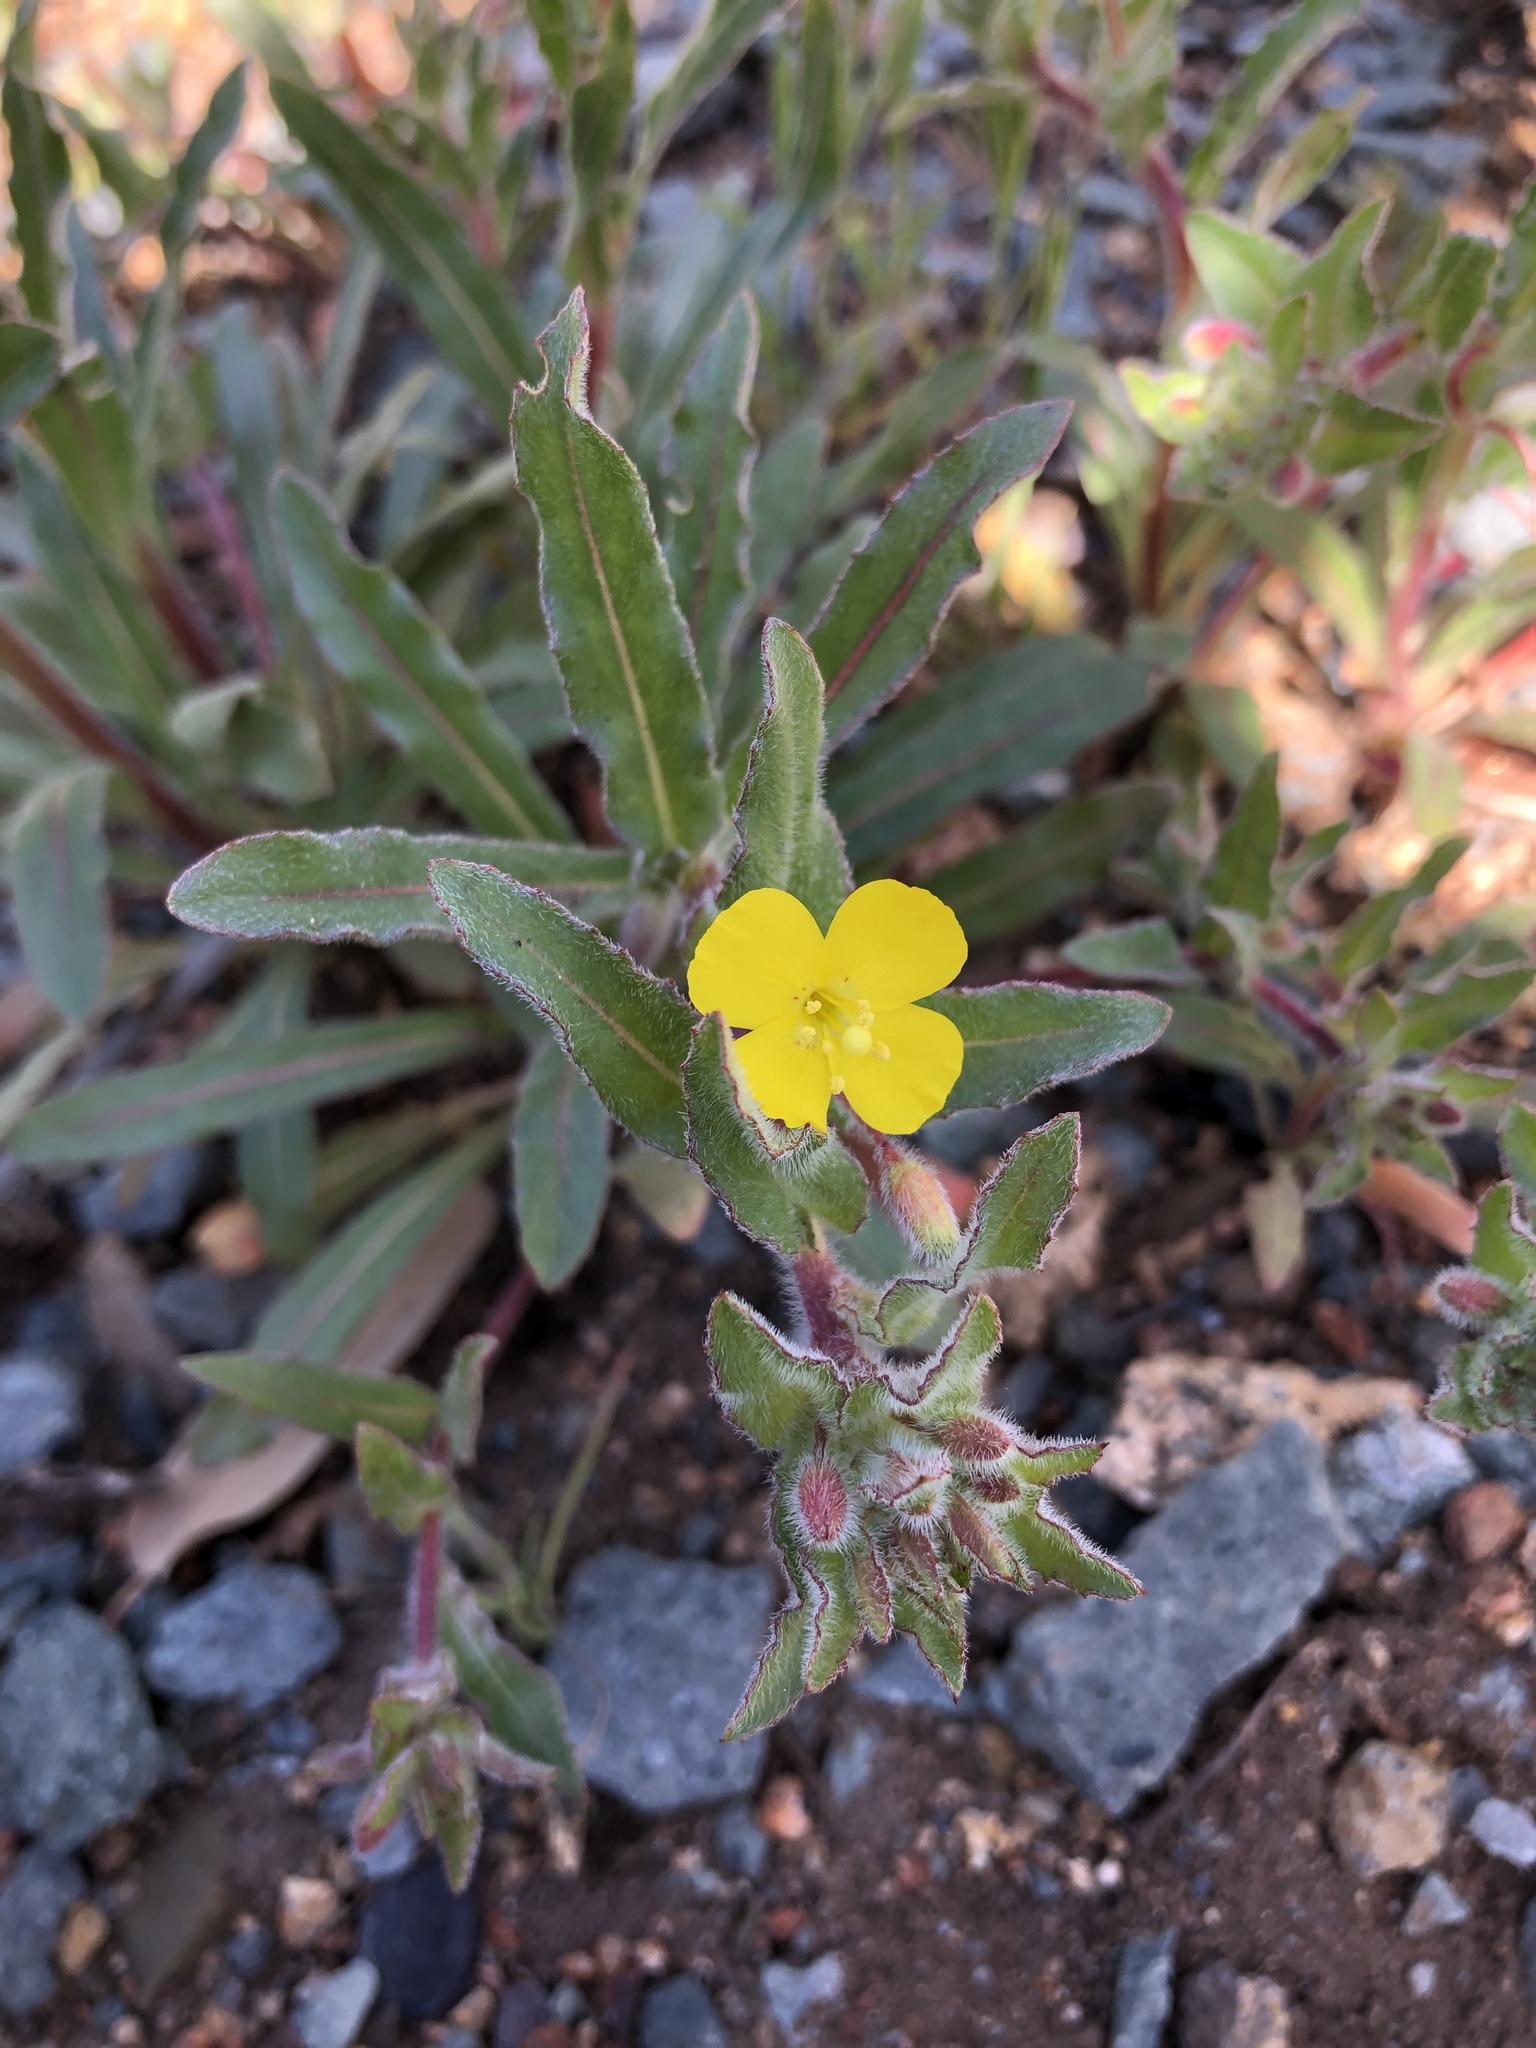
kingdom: Plantae
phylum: Tracheophyta
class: Magnoliopsida
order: Myrtales
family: Onagraceae
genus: Camissoniopsis
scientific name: Camissoniopsis pallida
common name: Paleyellow suncup
